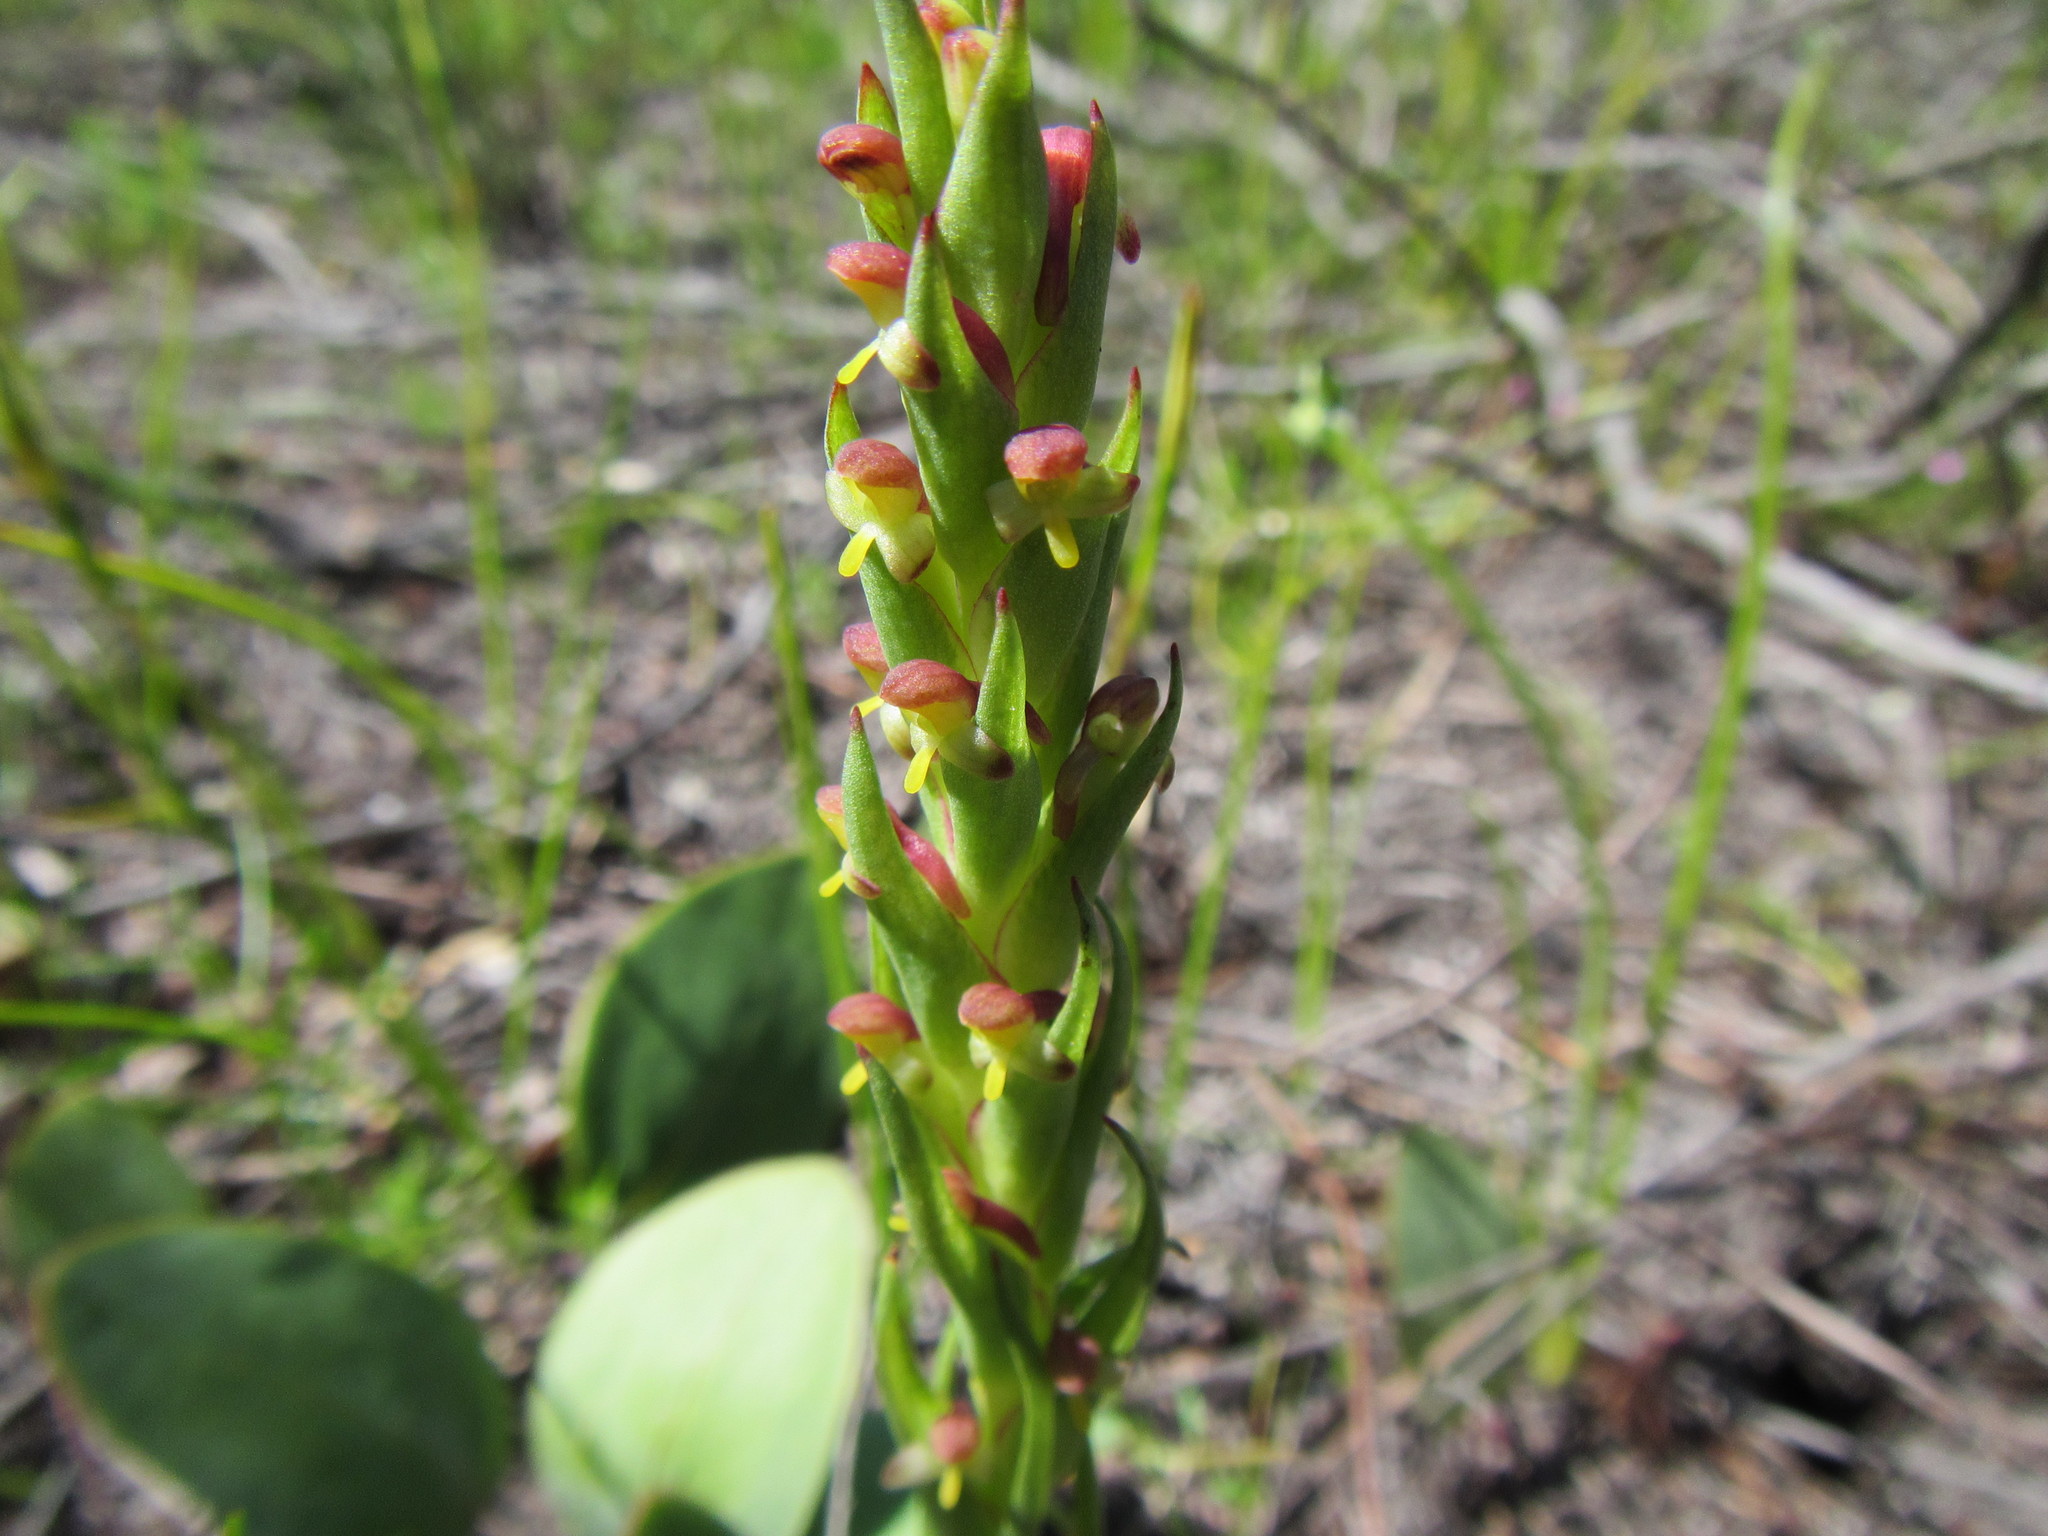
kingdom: Plantae
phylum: Tracheophyta
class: Liliopsida
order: Asparagales
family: Orchidaceae
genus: Disa
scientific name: Disa bracteata
